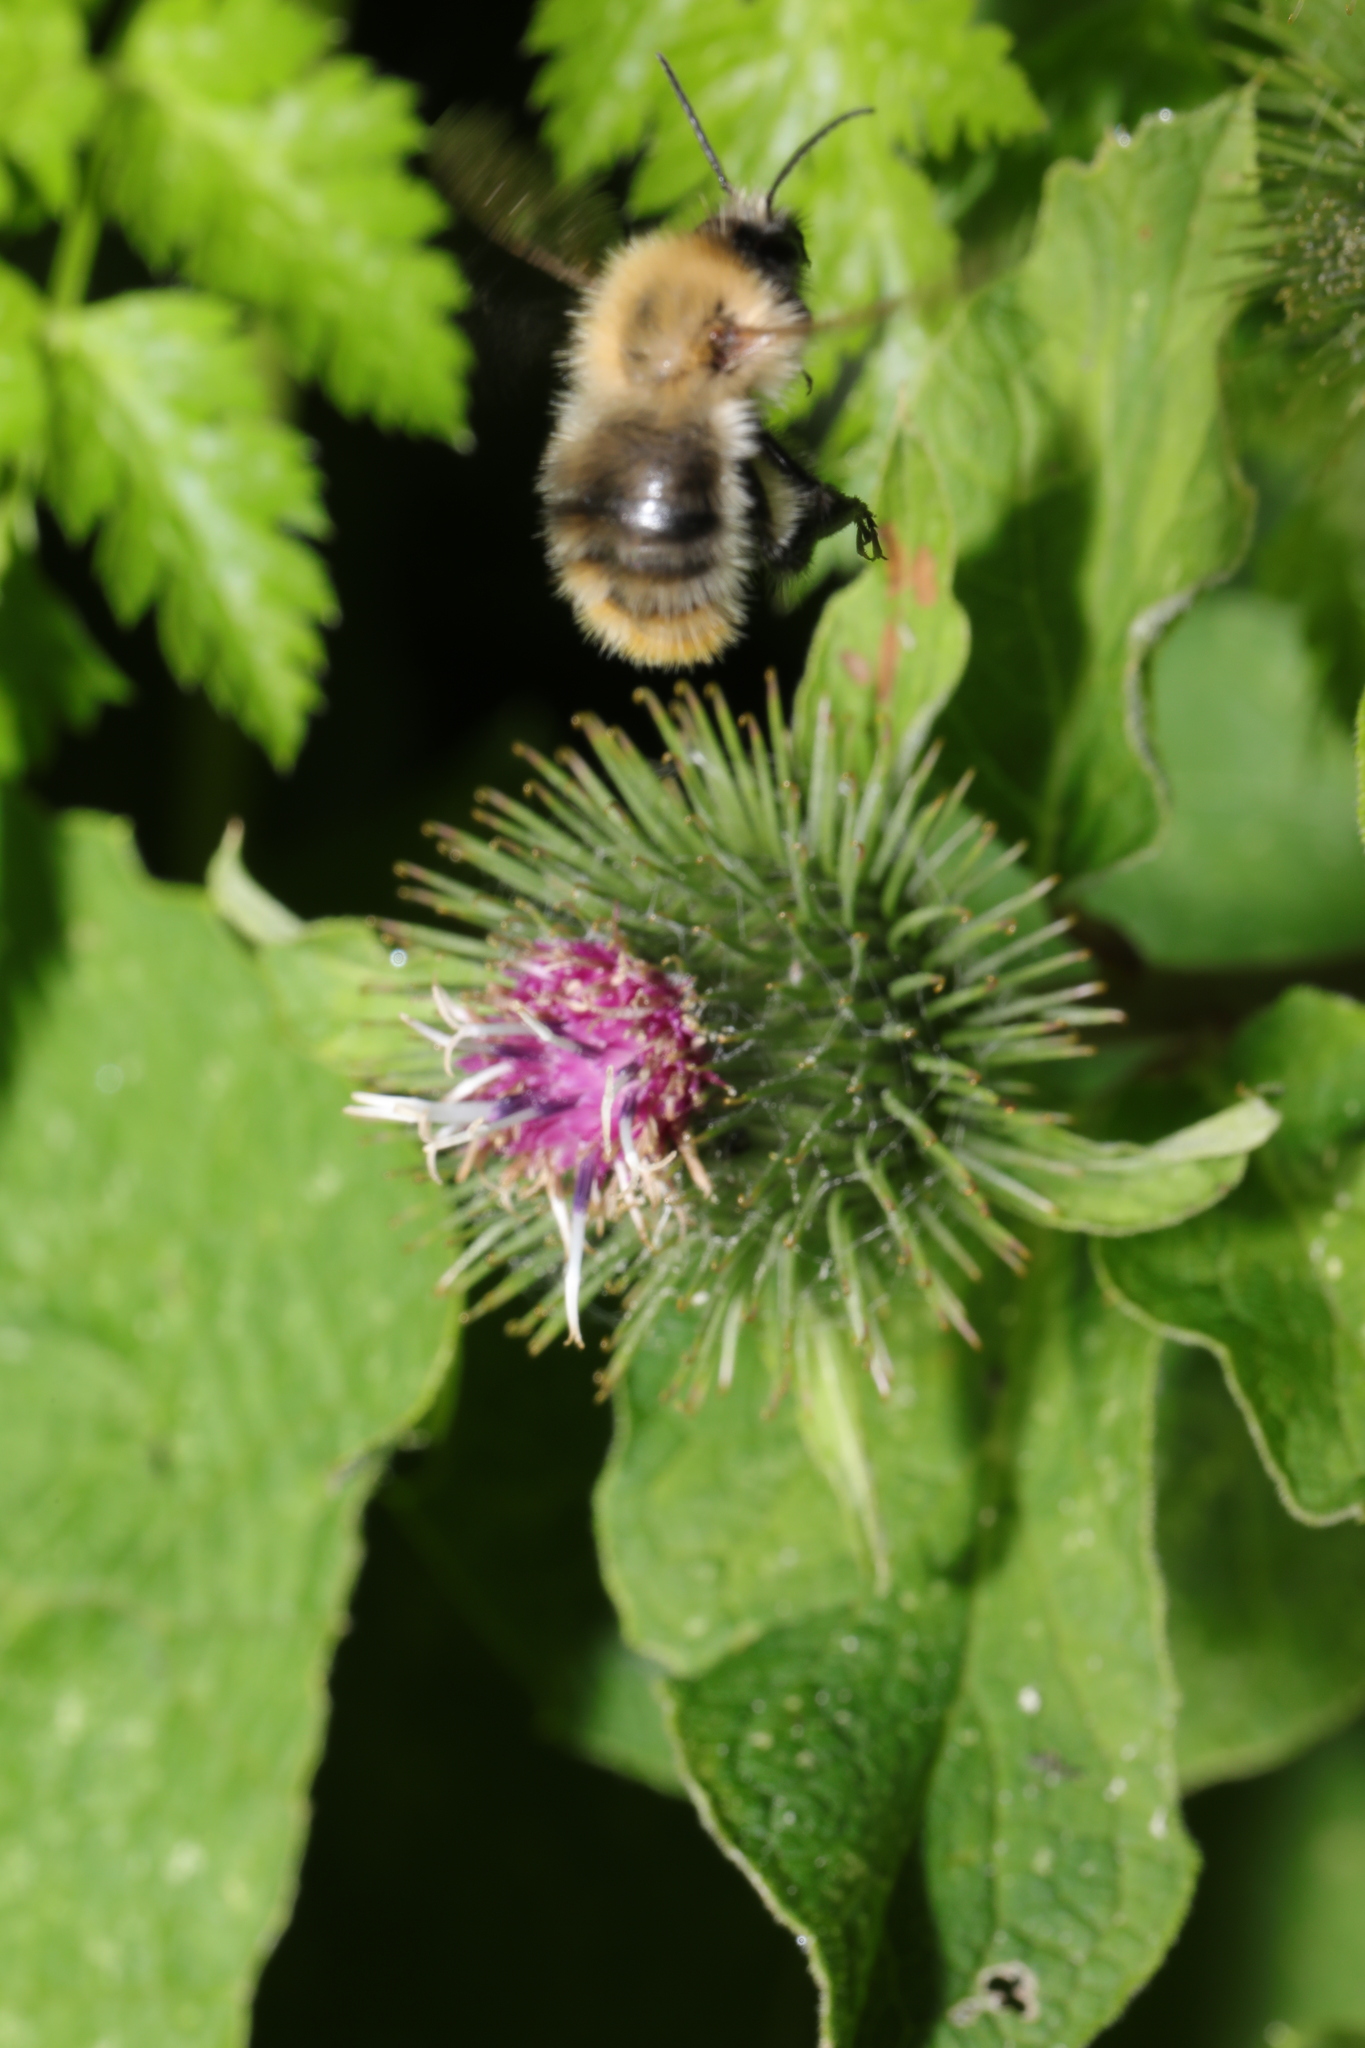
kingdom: Animalia
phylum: Arthropoda
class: Insecta
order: Hymenoptera
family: Apidae
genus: Bombus
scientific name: Bombus pascuorum
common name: Common carder bee
